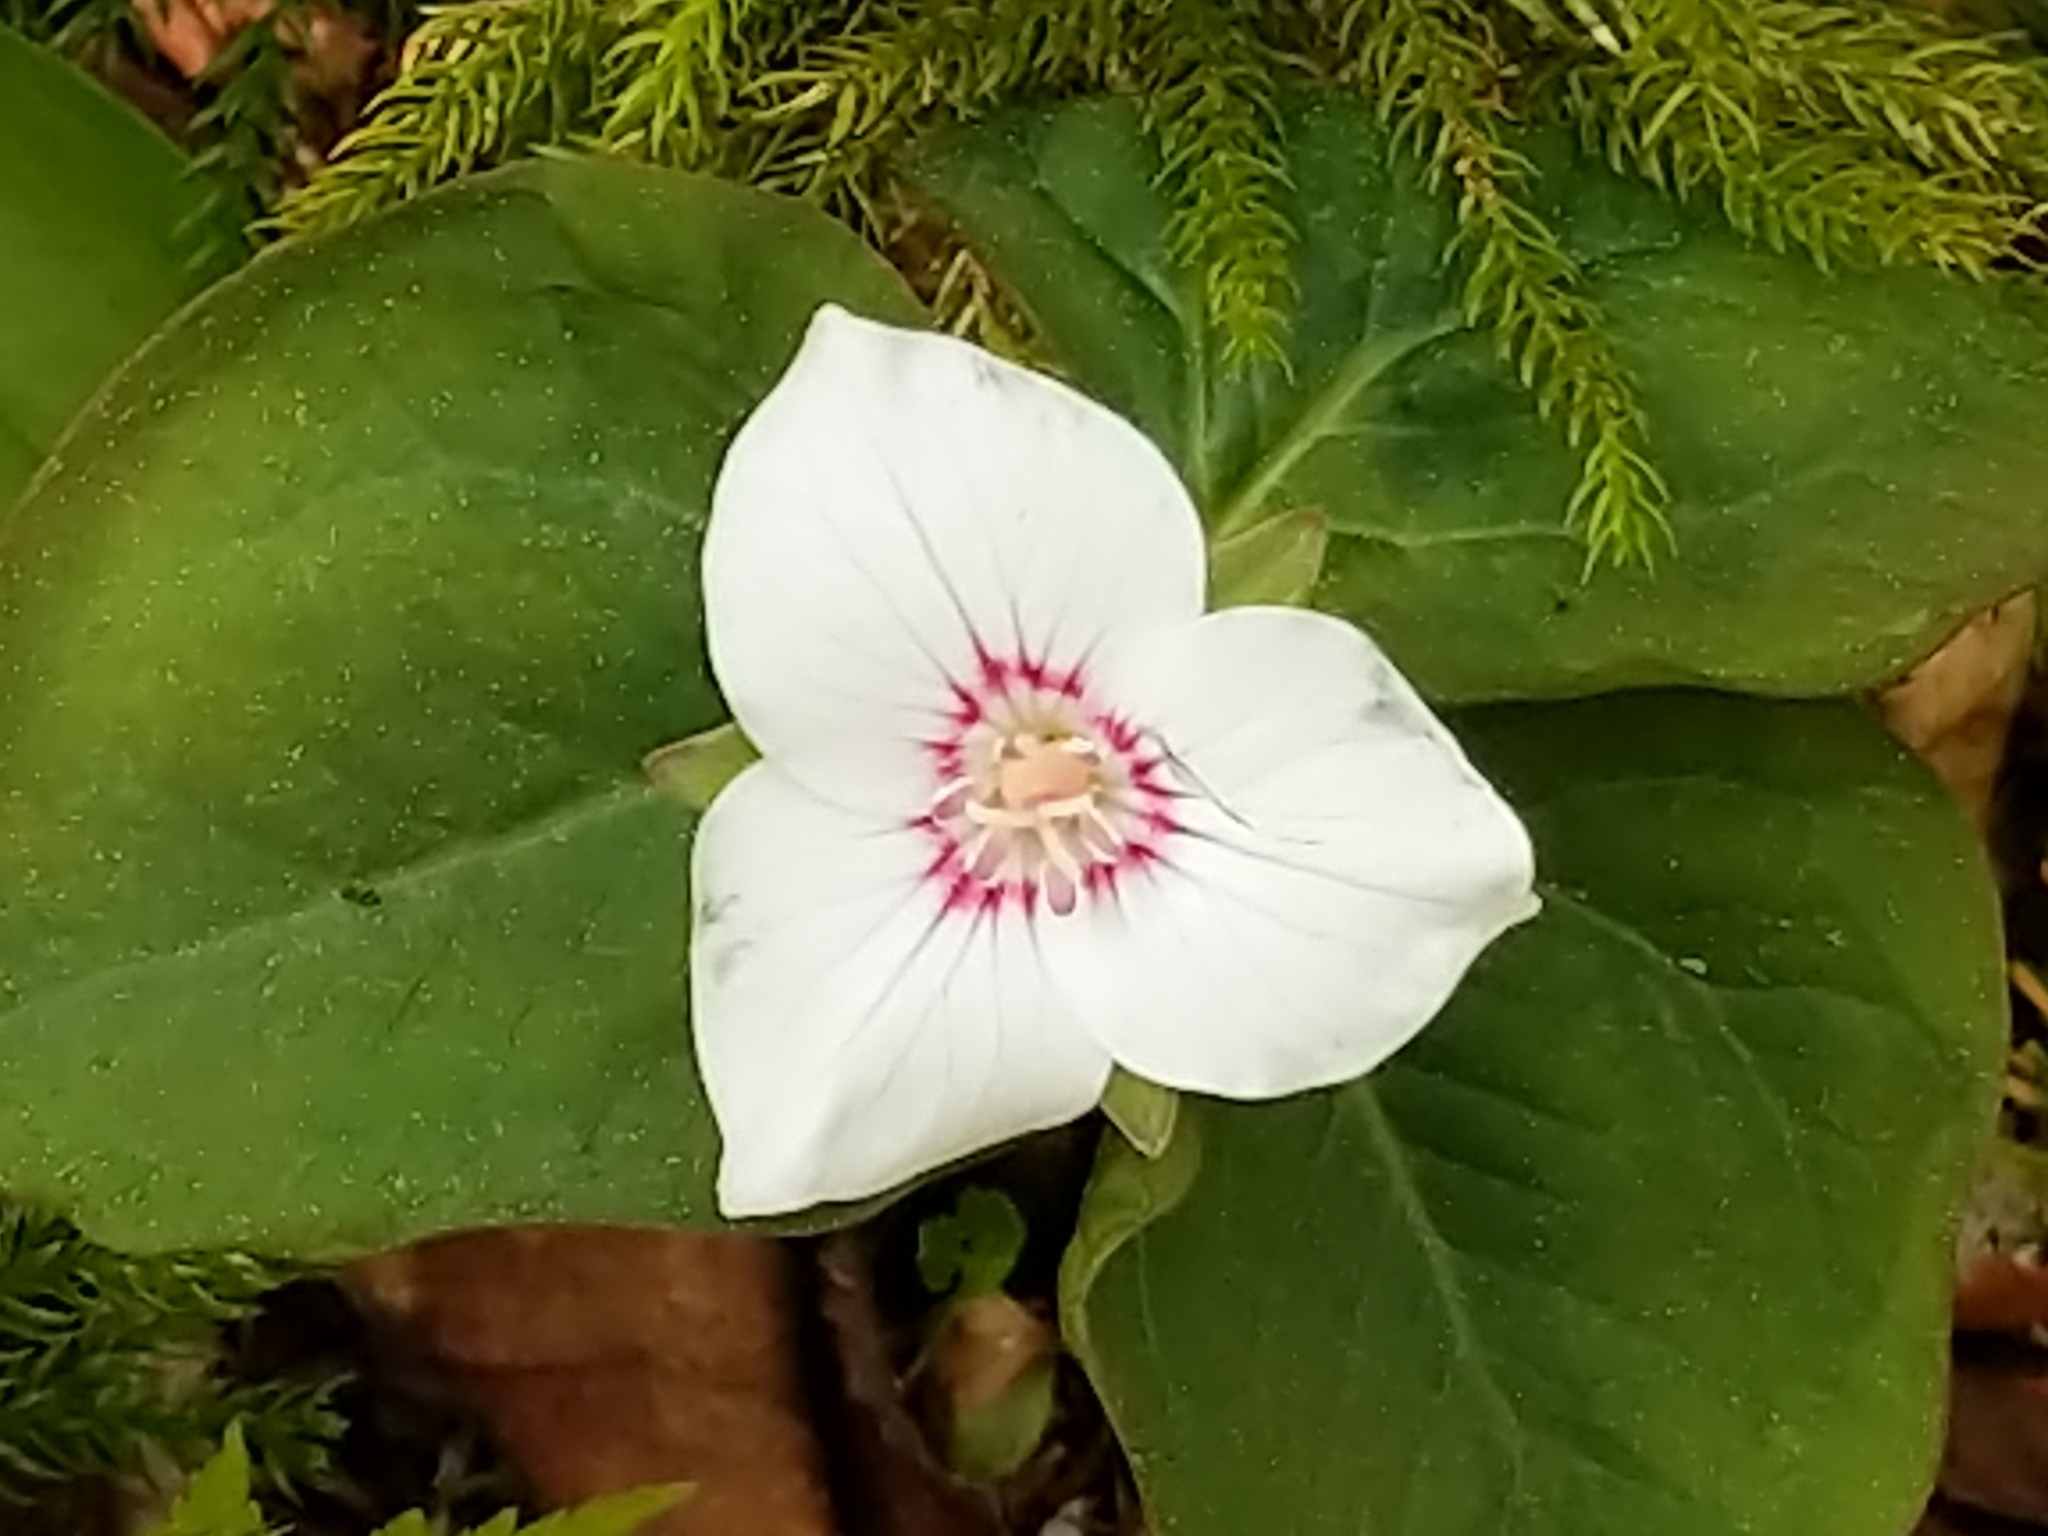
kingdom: Plantae
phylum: Tracheophyta
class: Liliopsida
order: Liliales
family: Melanthiaceae
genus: Trillium
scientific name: Trillium undulatum
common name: Paint trillium
